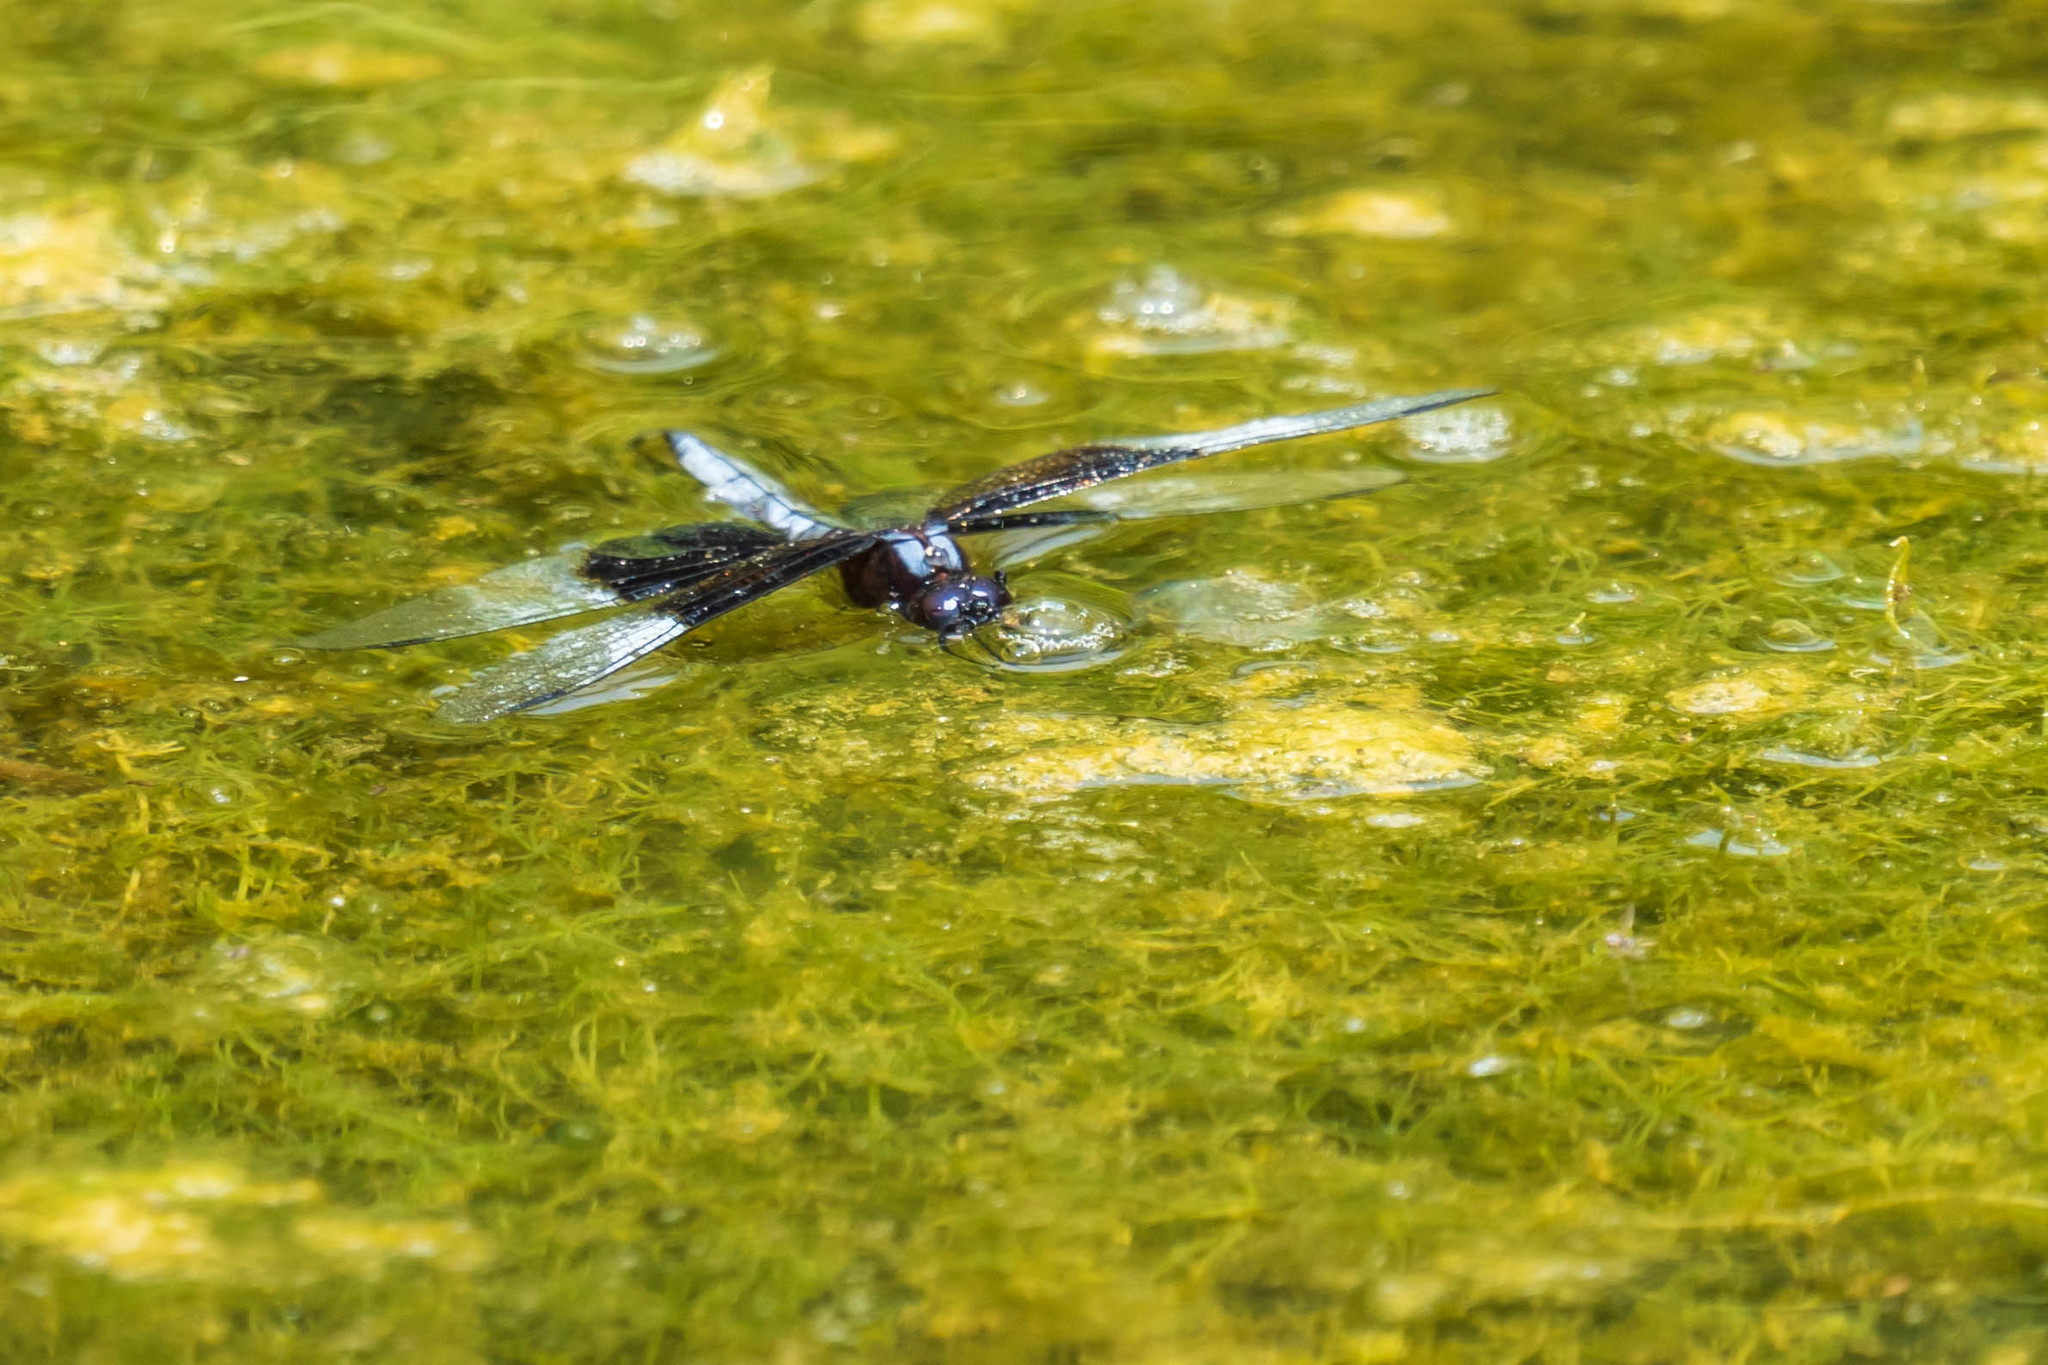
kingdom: Animalia
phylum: Arthropoda
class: Insecta
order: Odonata
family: Libellulidae
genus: Libellula
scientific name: Libellula luctuosa
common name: Widow skimmer
